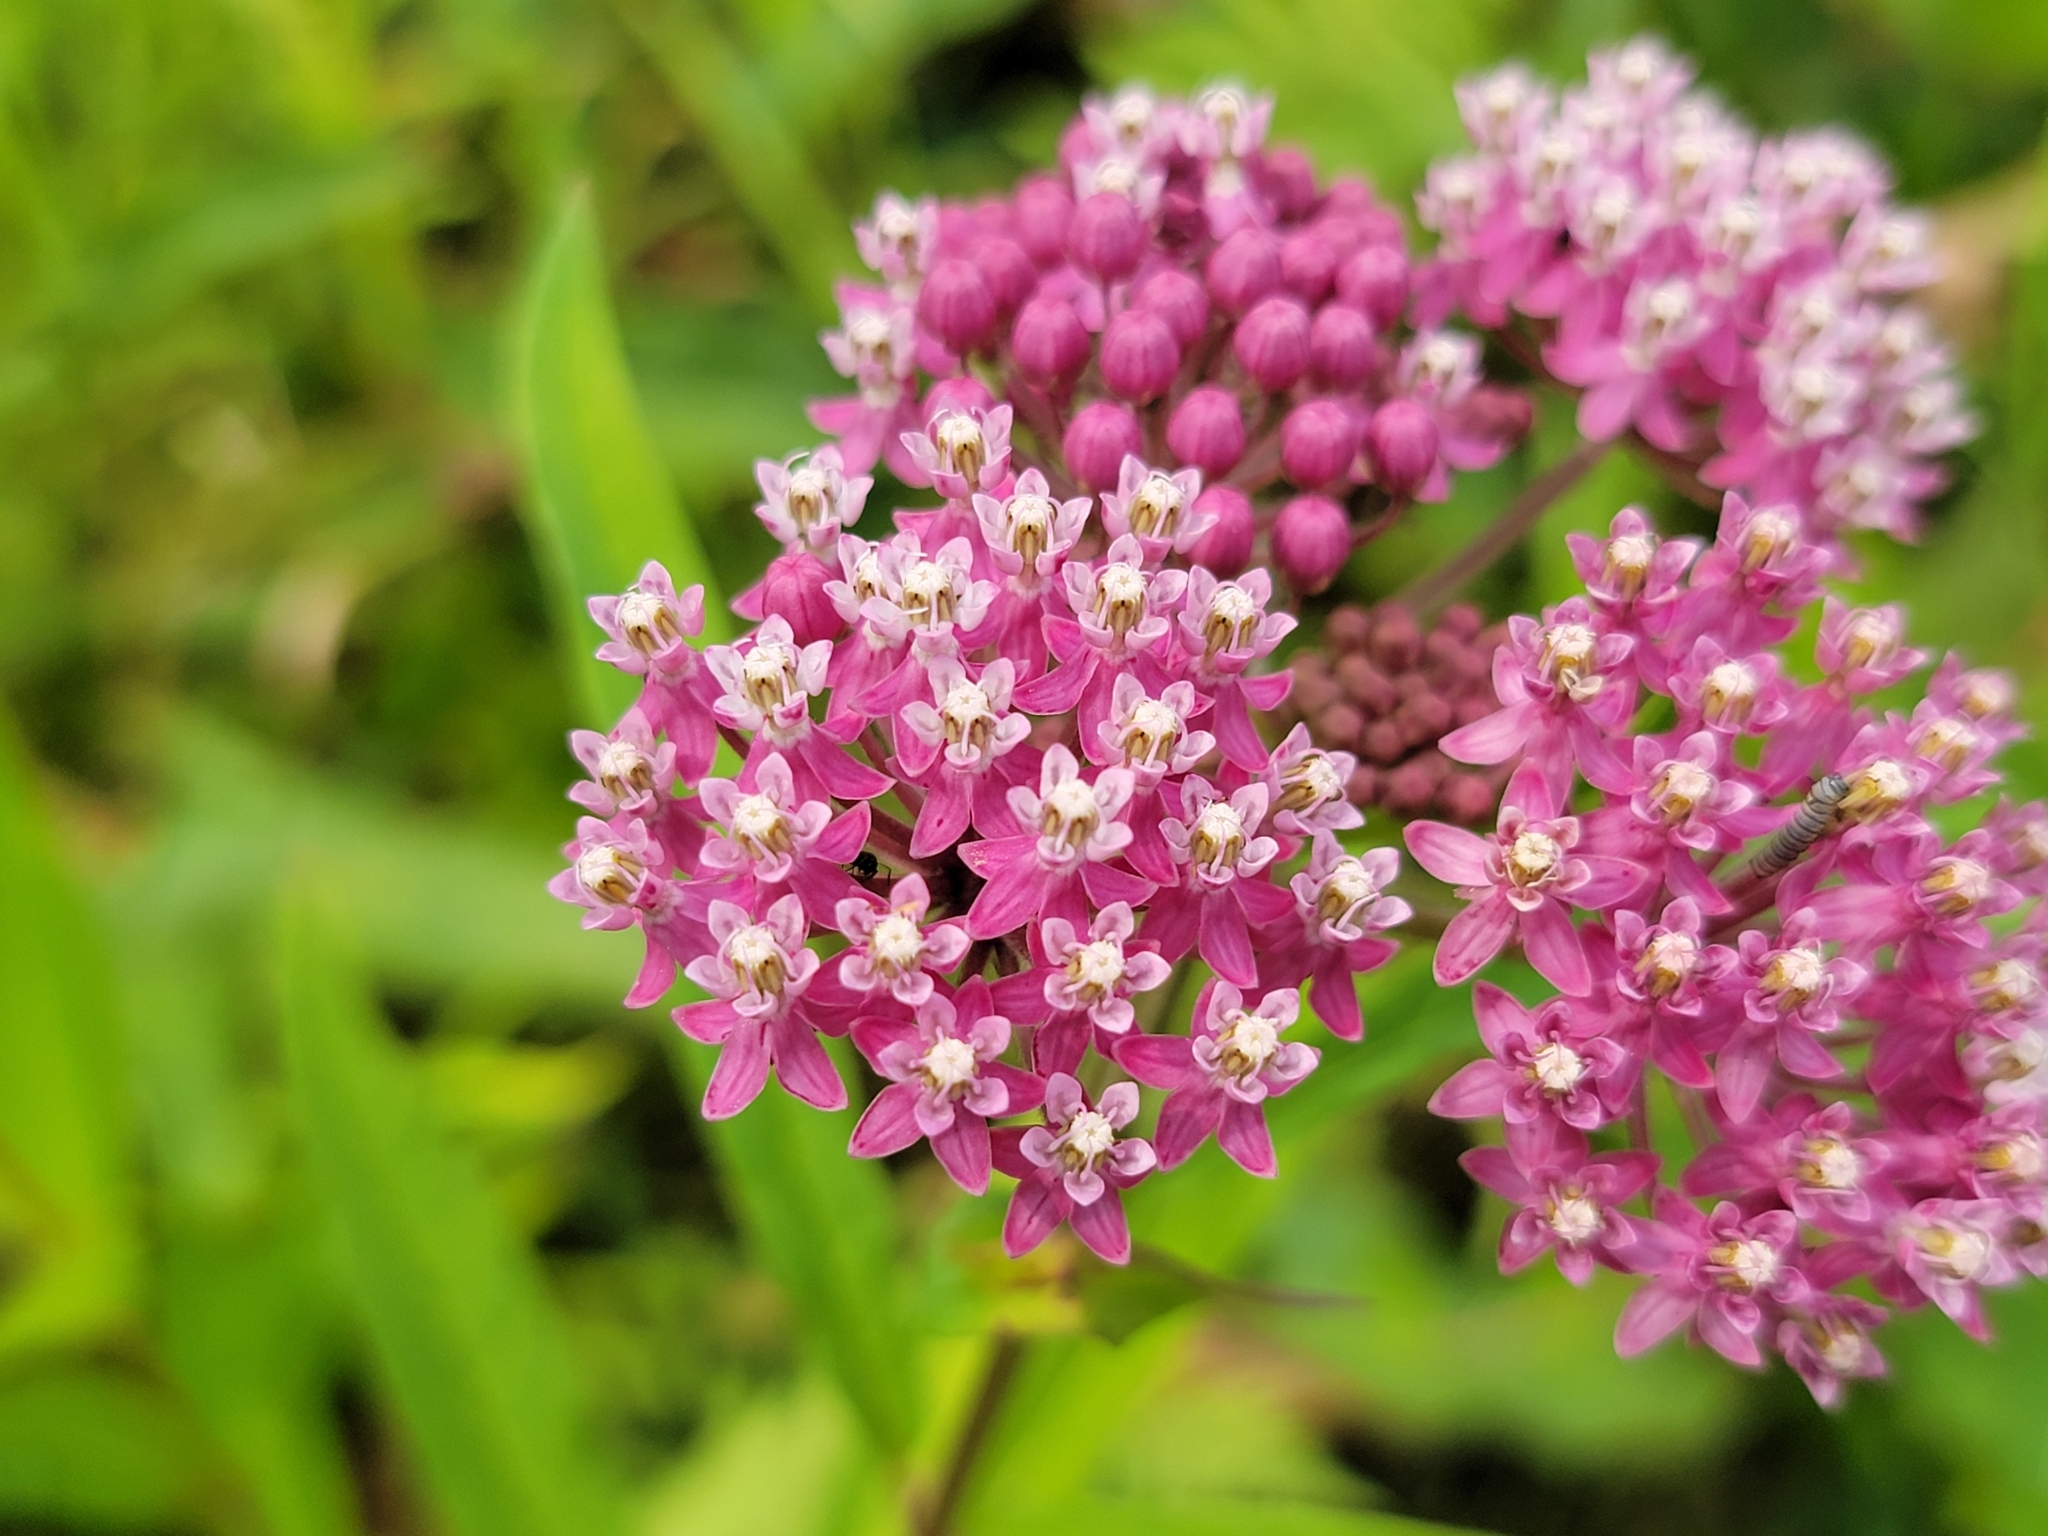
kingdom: Plantae
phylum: Tracheophyta
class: Magnoliopsida
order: Gentianales
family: Apocynaceae
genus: Asclepias
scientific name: Asclepias incarnata
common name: Swamp milkweed
